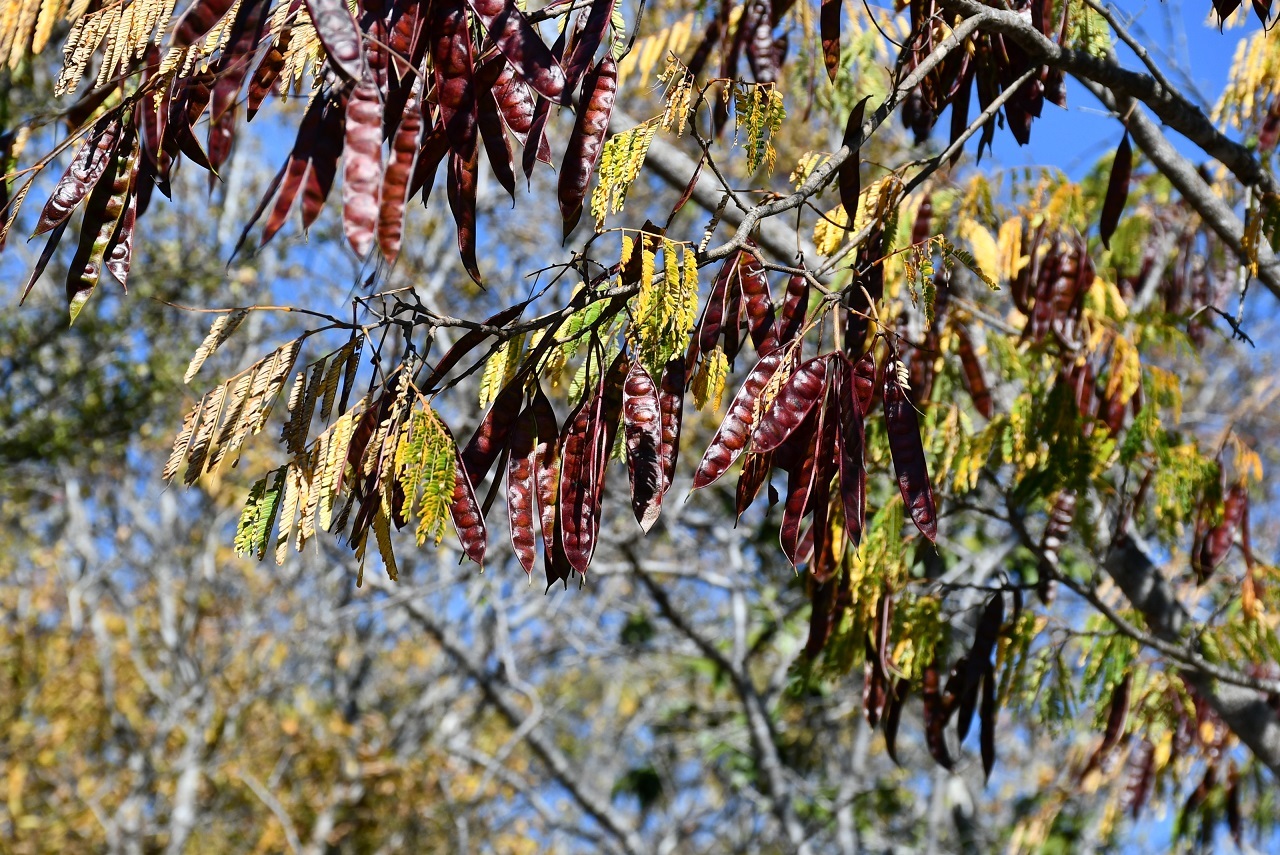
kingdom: Plantae
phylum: Tracheophyta
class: Magnoliopsida
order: Fabales
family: Fabaceae
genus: Lysiloma
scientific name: Lysiloma divaricatum
